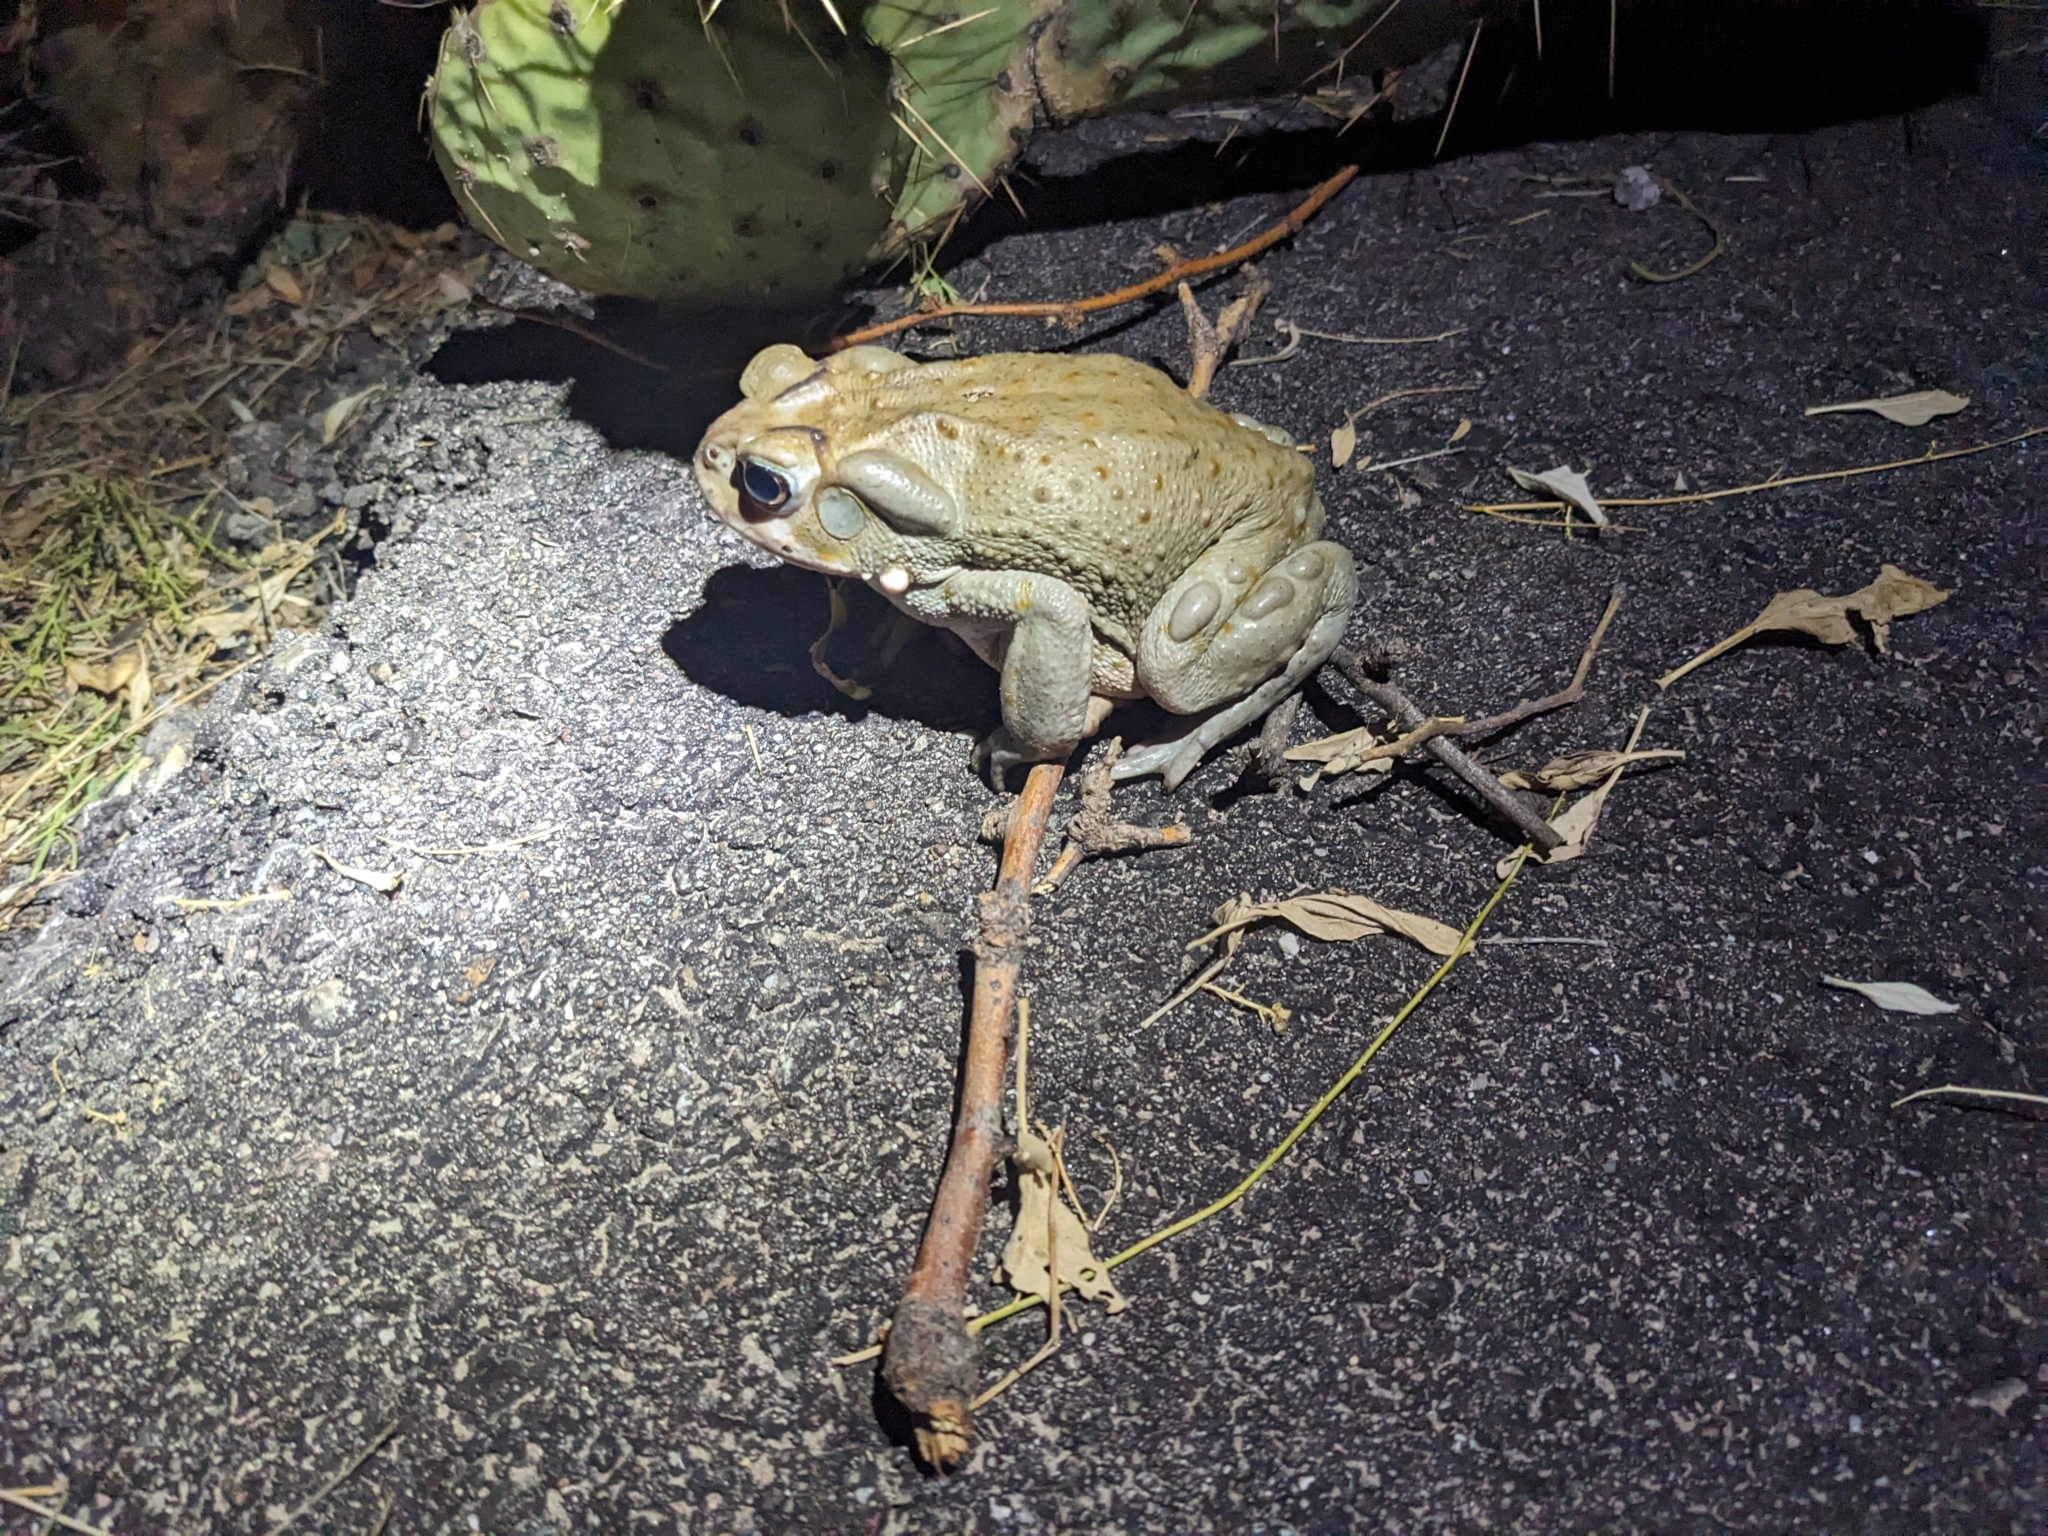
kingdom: Animalia
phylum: Chordata
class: Amphibia
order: Anura
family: Bufonidae
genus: Incilius
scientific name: Incilius alvarius
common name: Sonoran desert toad
